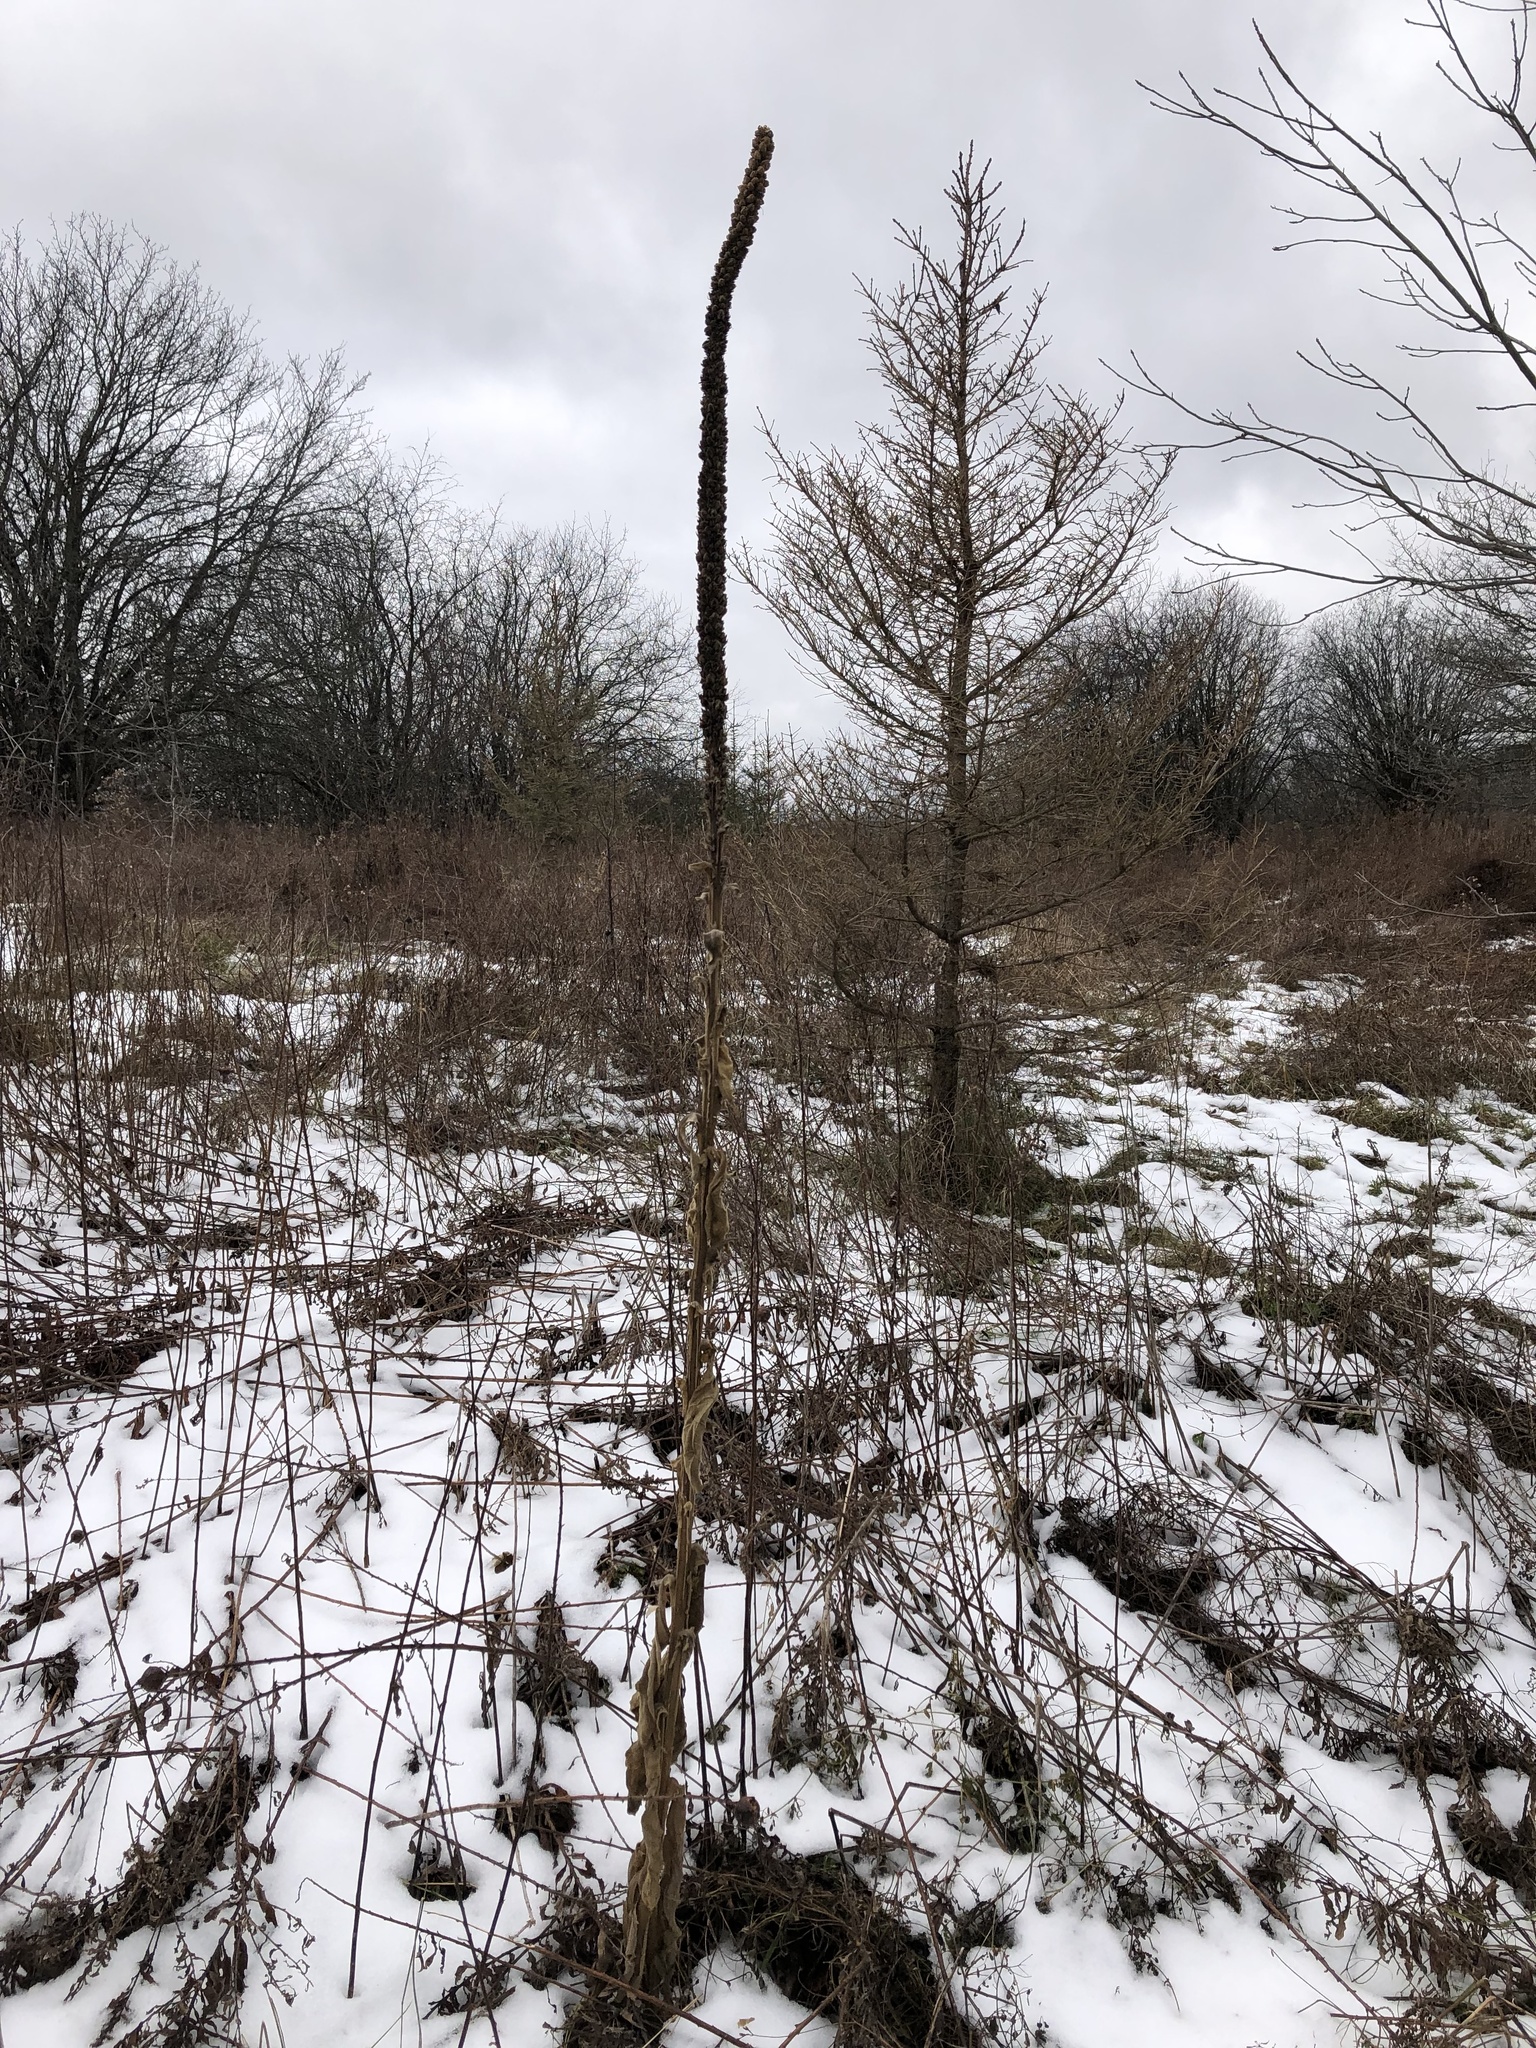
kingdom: Plantae
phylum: Tracheophyta
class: Magnoliopsida
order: Lamiales
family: Scrophulariaceae
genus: Verbascum
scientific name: Verbascum thapsus
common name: Common mullein
